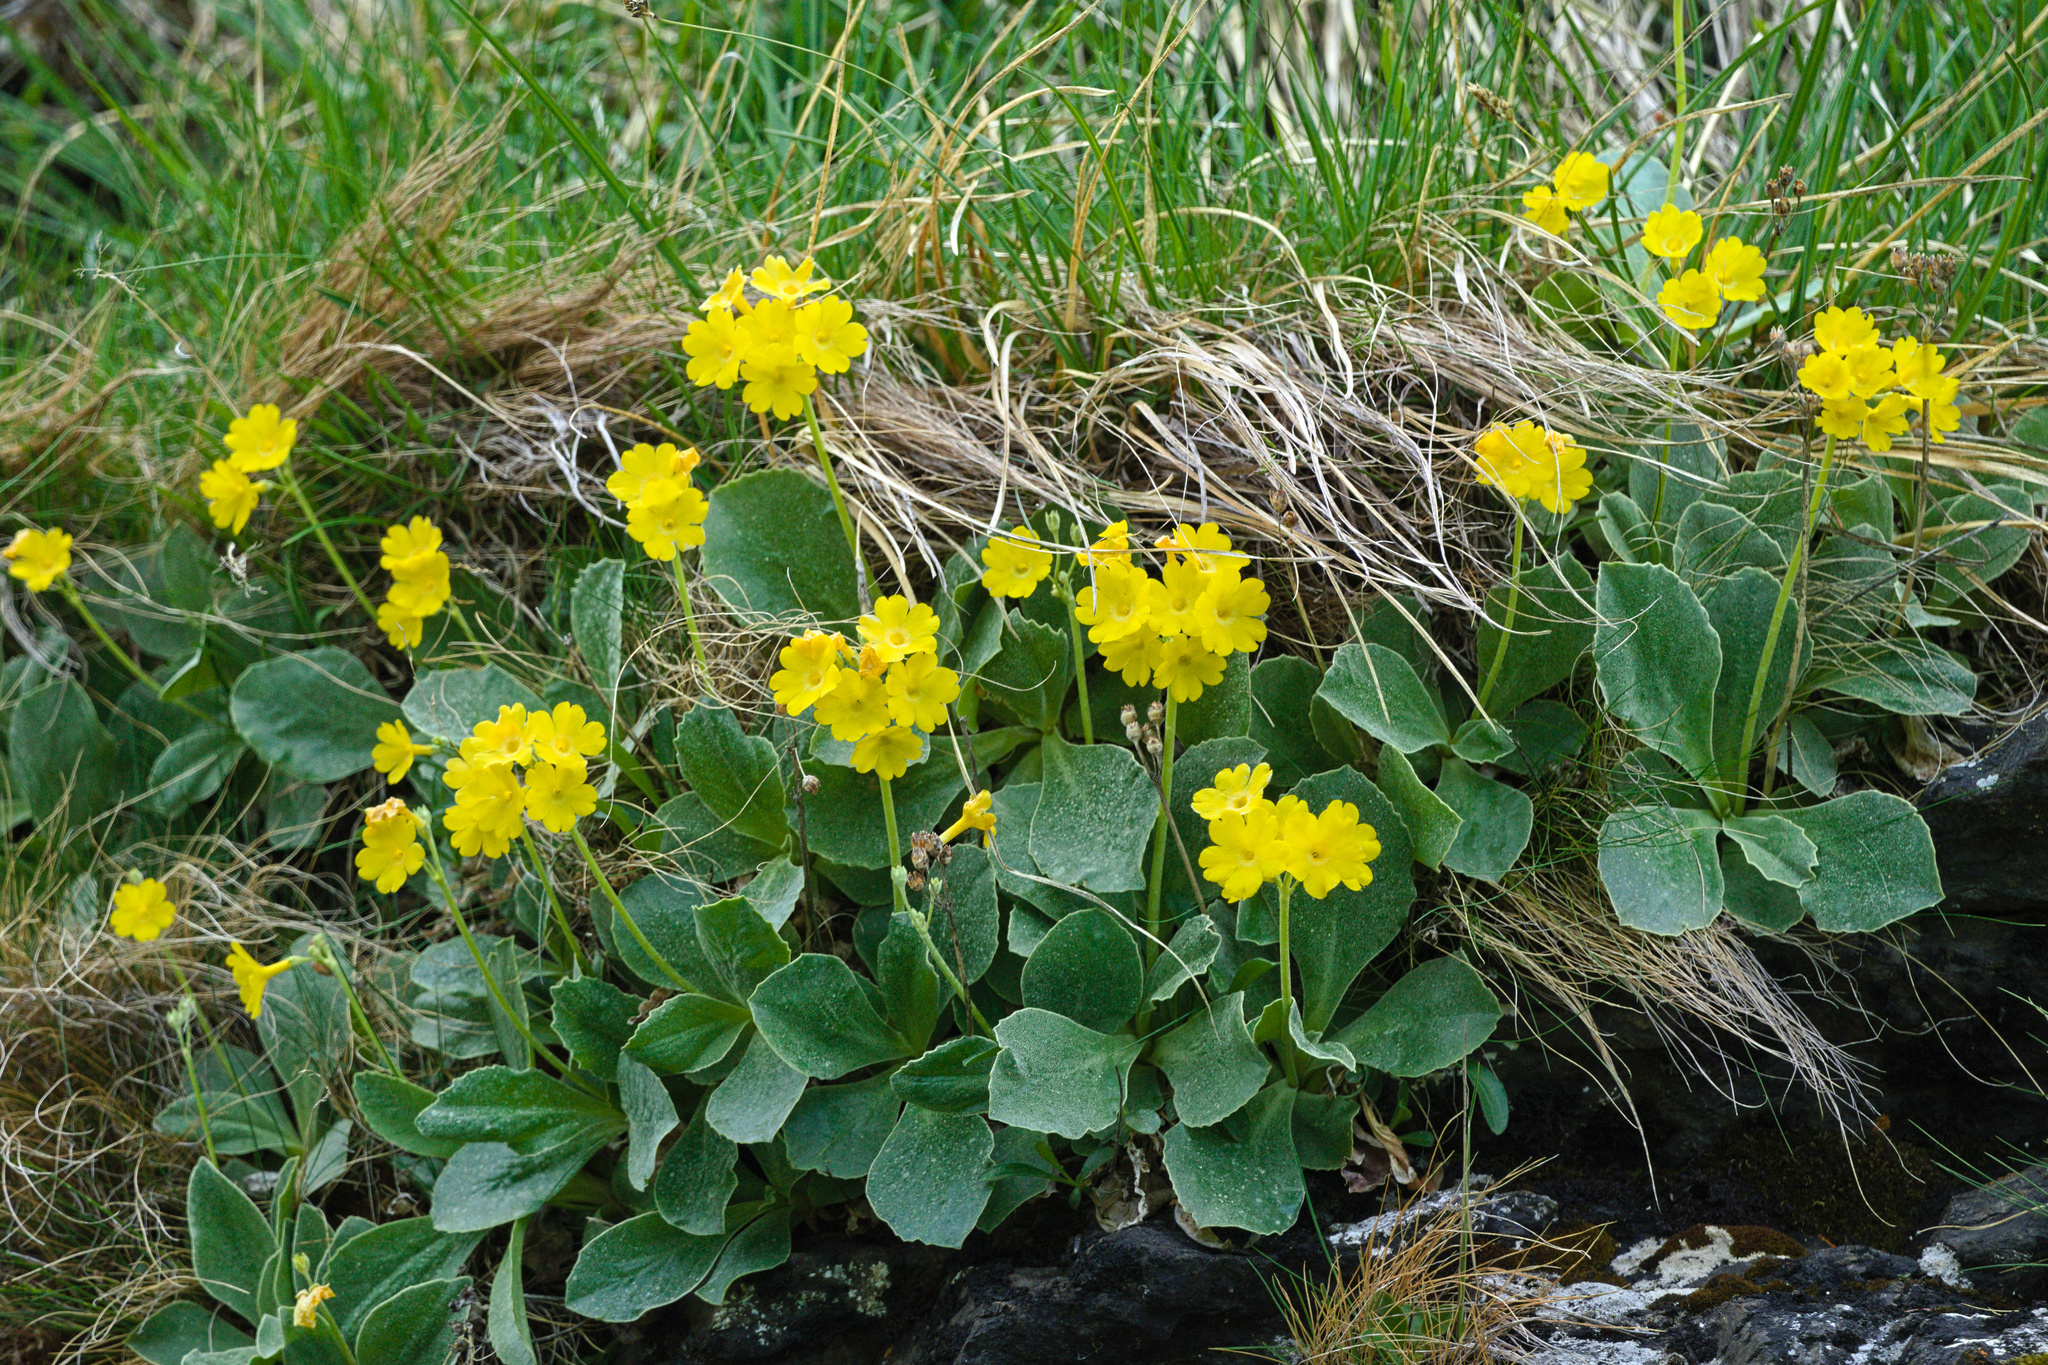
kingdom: Plantae
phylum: Tracheophyta
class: Magnoliopsida
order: Ericales
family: Primulaceae
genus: Primula
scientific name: Primula auricula
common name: Auricula
